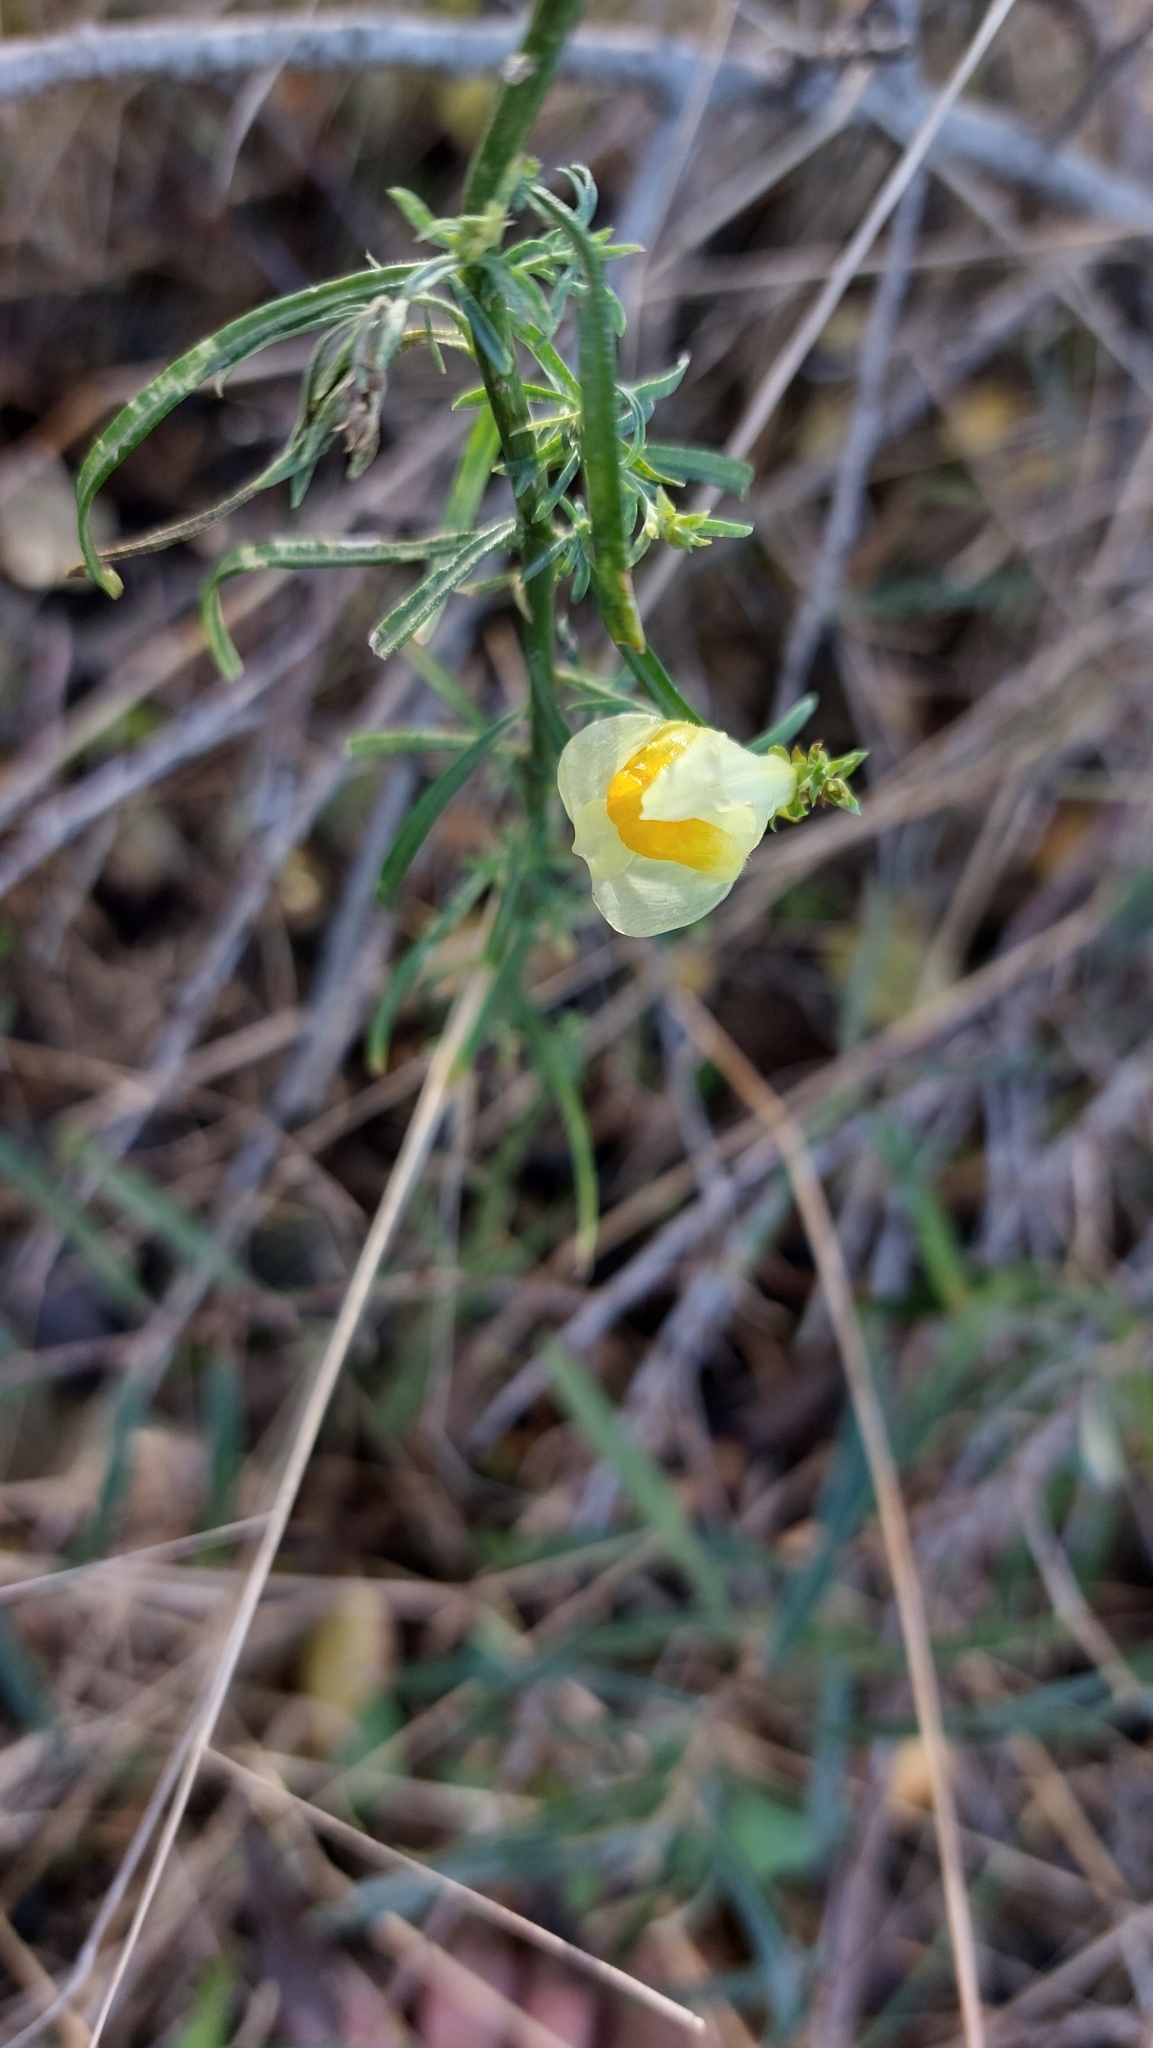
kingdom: Plantae
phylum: Tracheophyta
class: Magnoliopsida
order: Lamiales
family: Plantaginaceae
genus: Linaria
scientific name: Linaria vulgaris
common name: Butter and eggs
